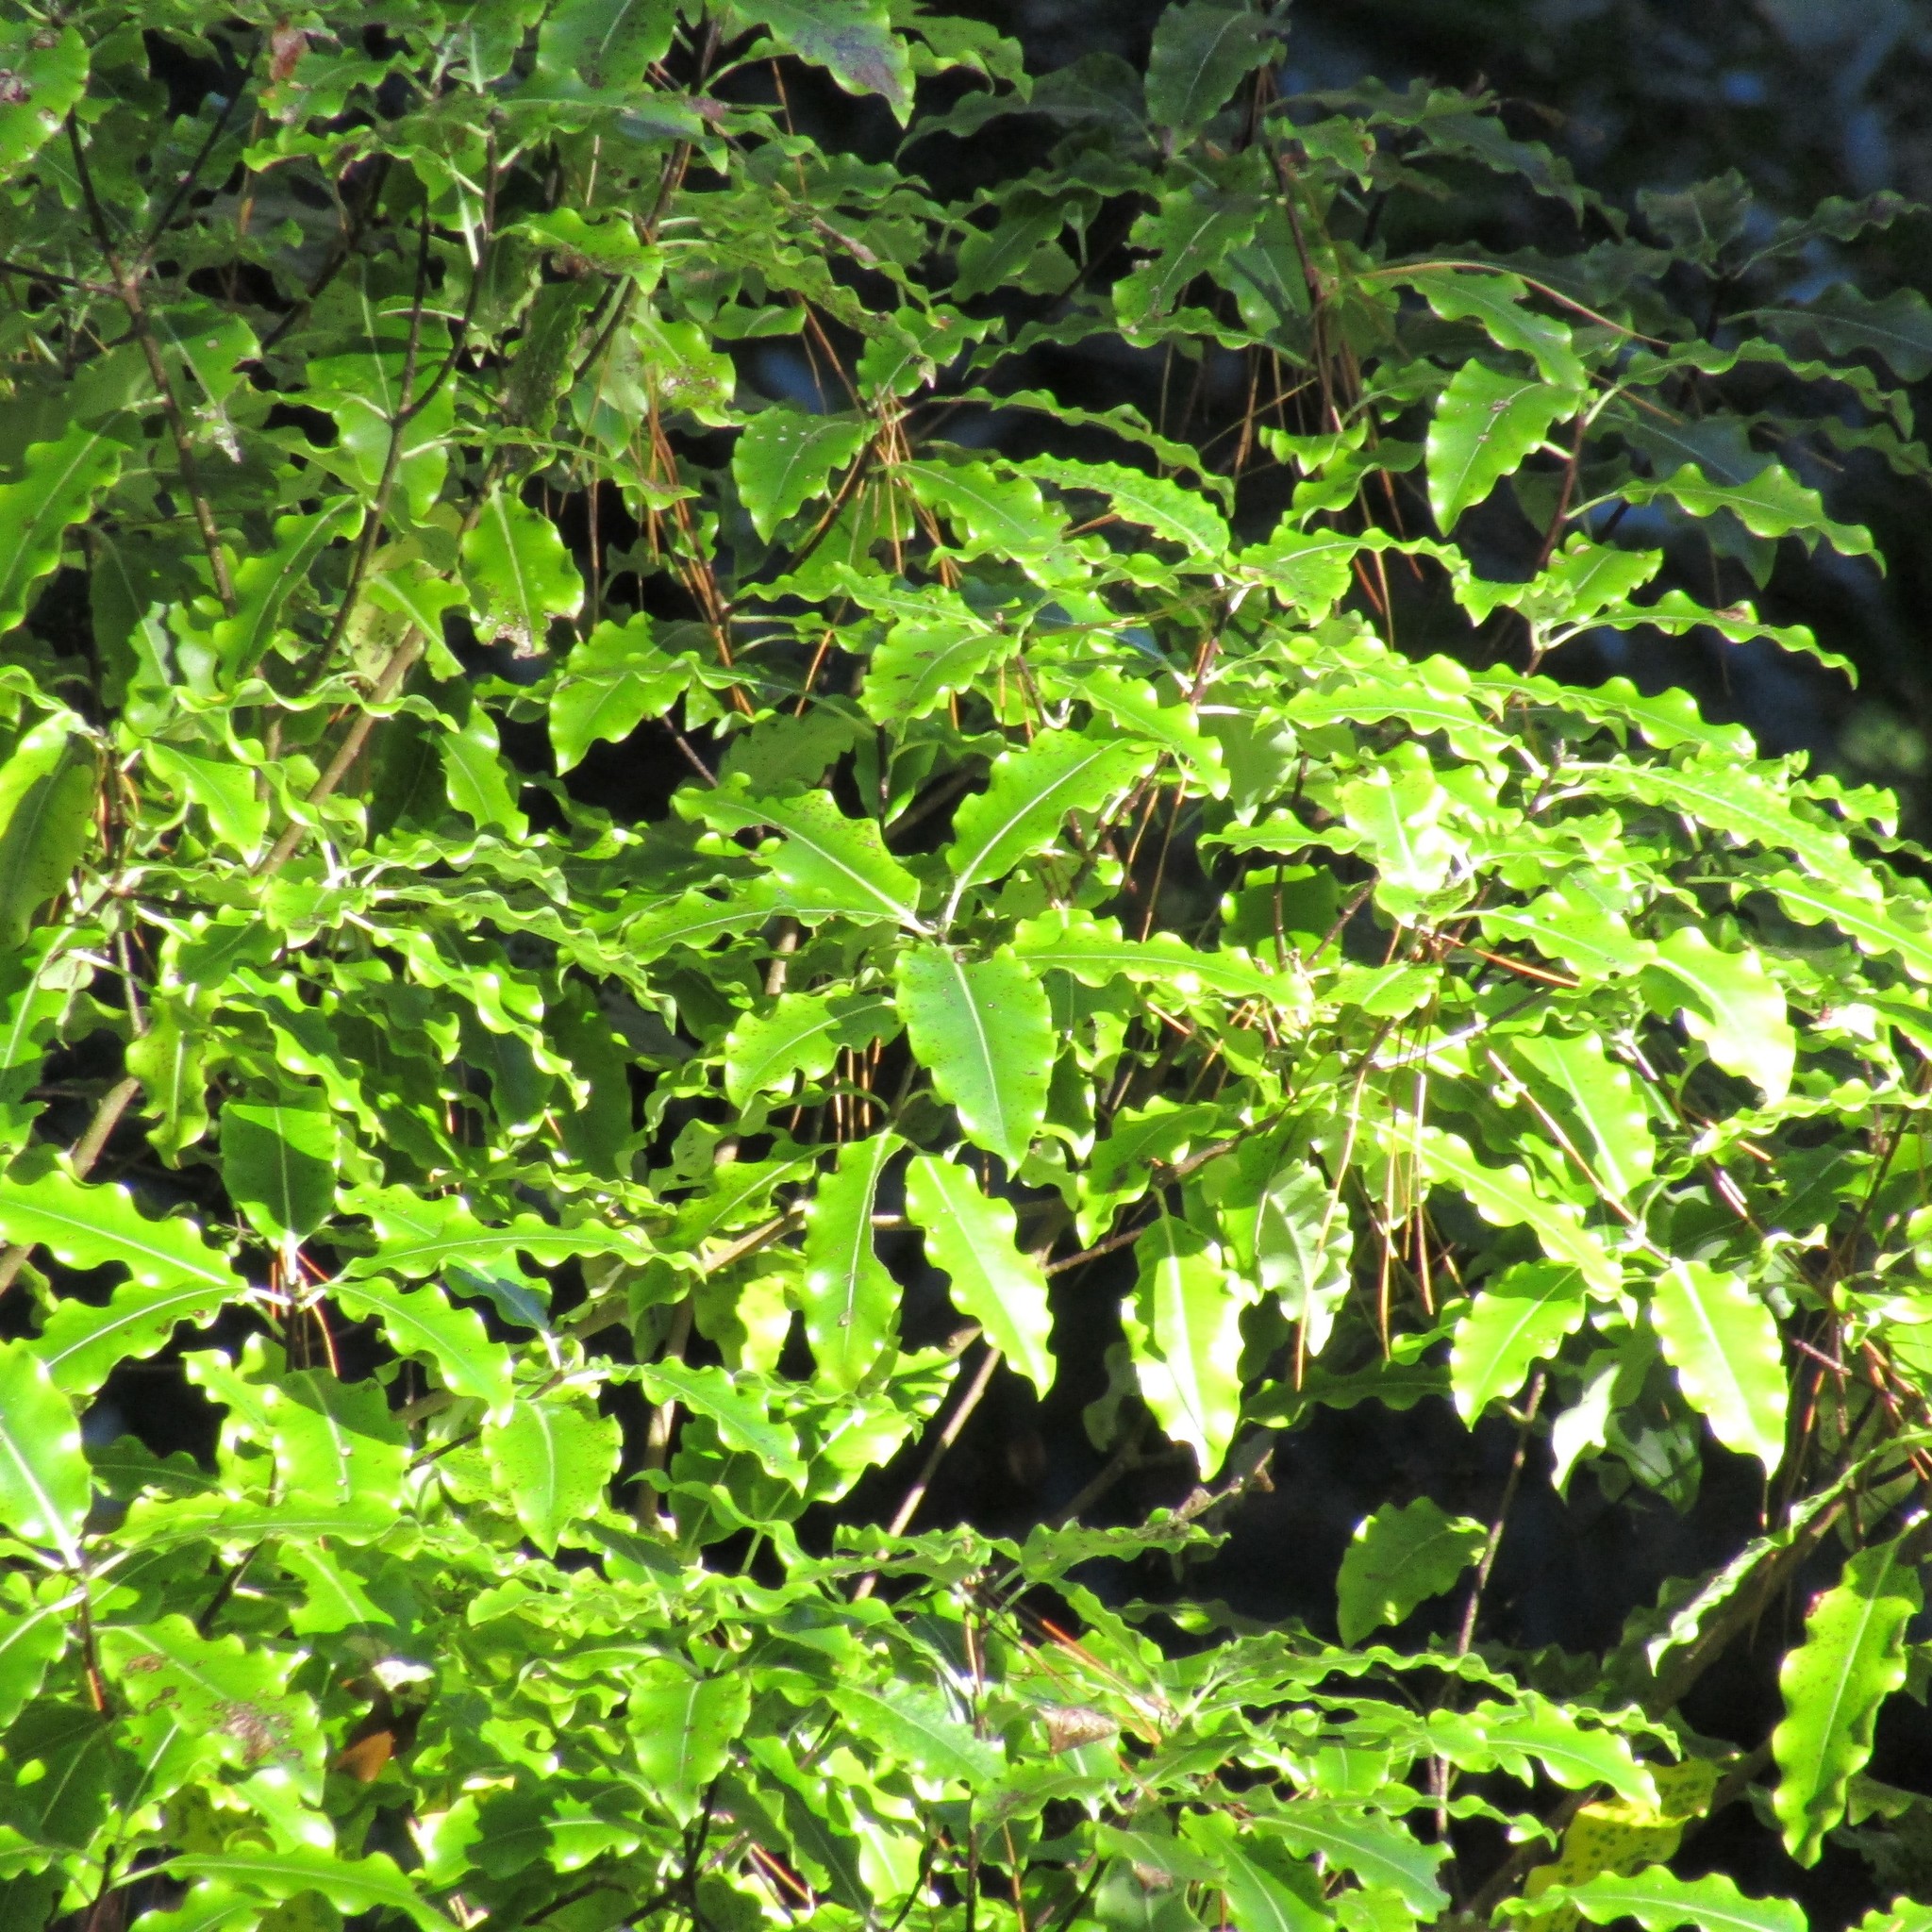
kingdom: Plantae
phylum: Tracheophyta
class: Magnoliopsida
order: Apiales
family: Pittosporaceae
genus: Pittosporum
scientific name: Pittosporum eugenioides
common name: Lemonwood
